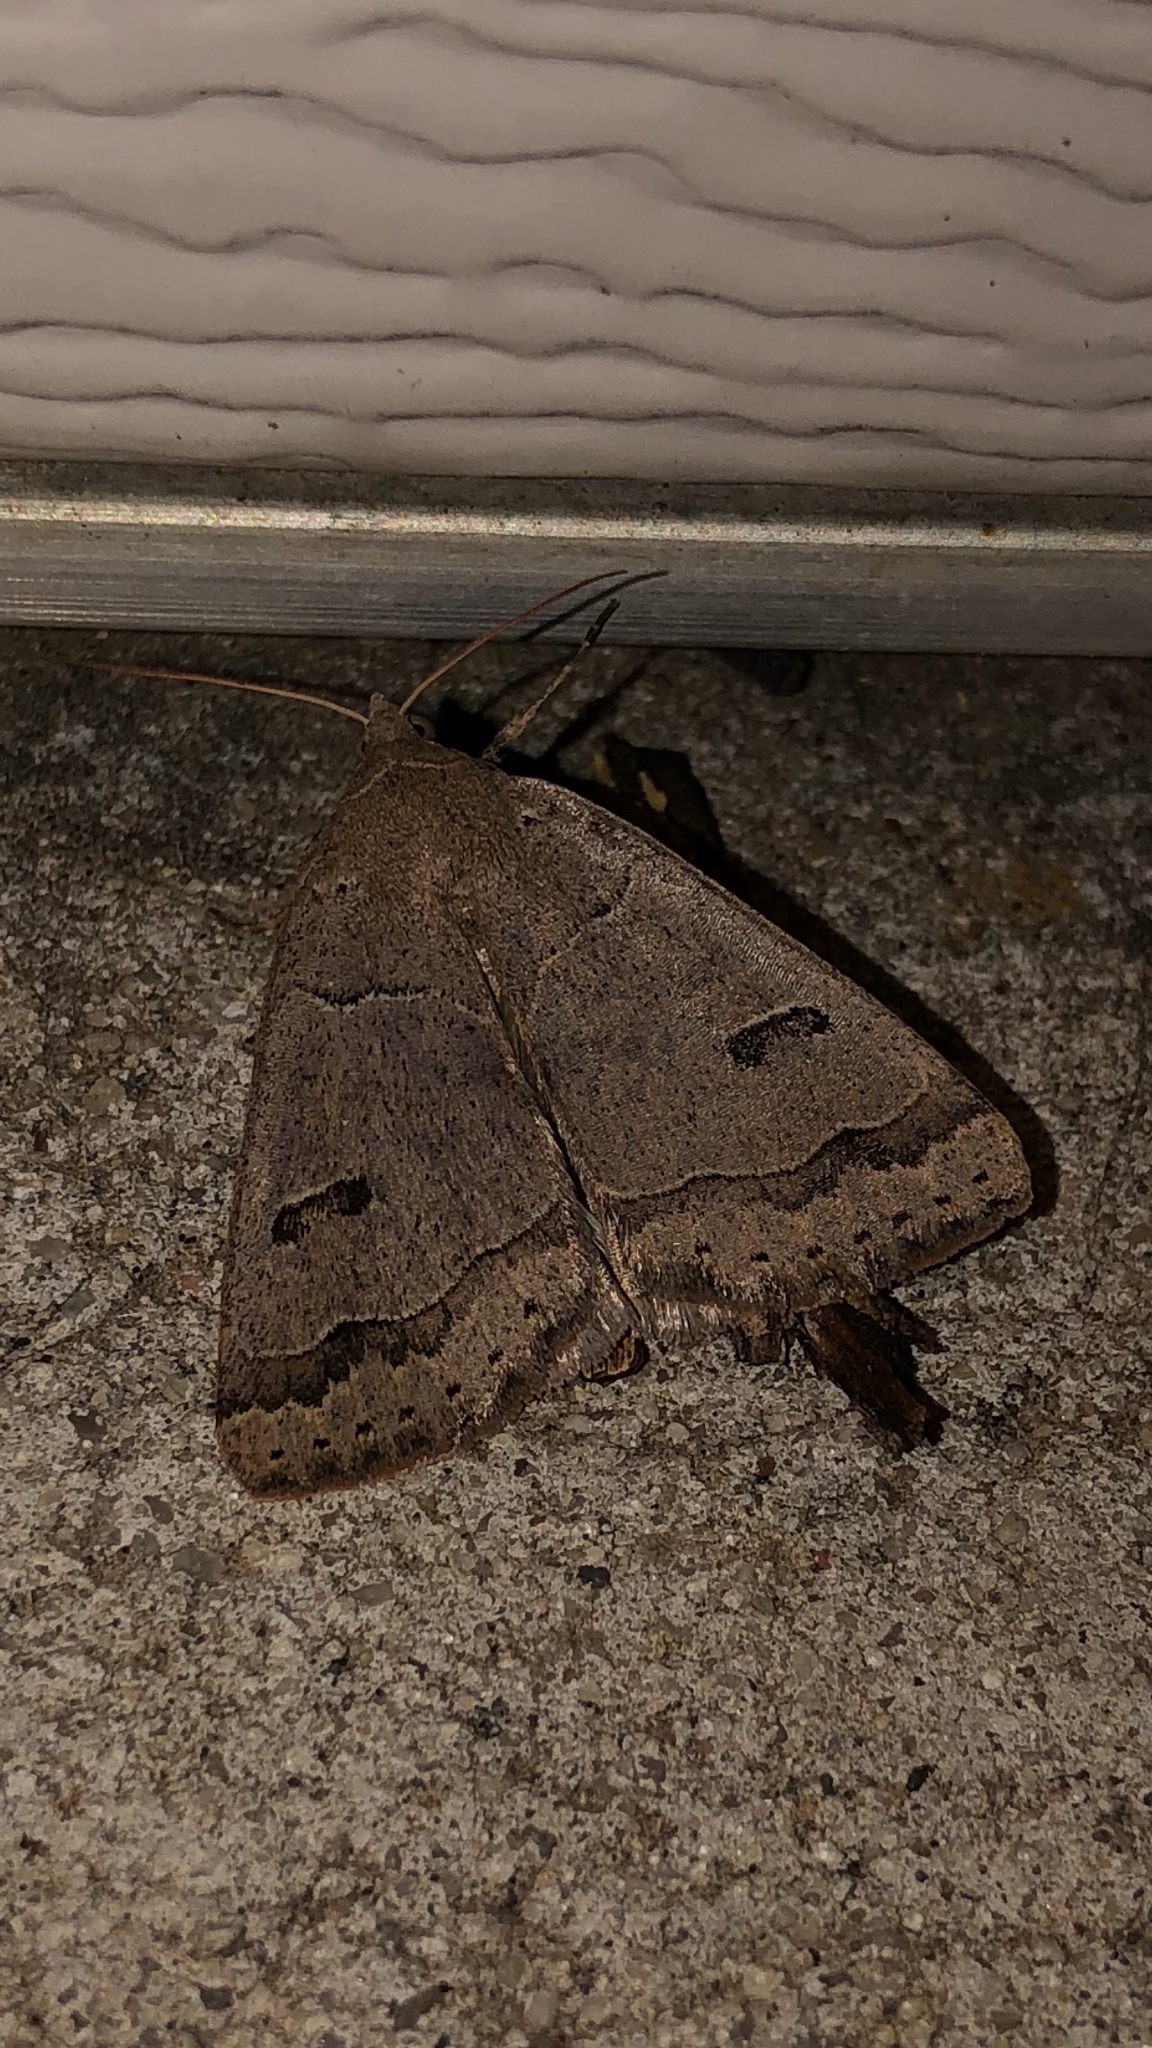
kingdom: Animalia
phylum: Arthropoda
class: Insecta
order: Lepidoptera
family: Erebidae
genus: Phoberia
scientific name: Phoberia atomaris
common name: Common oak moth
